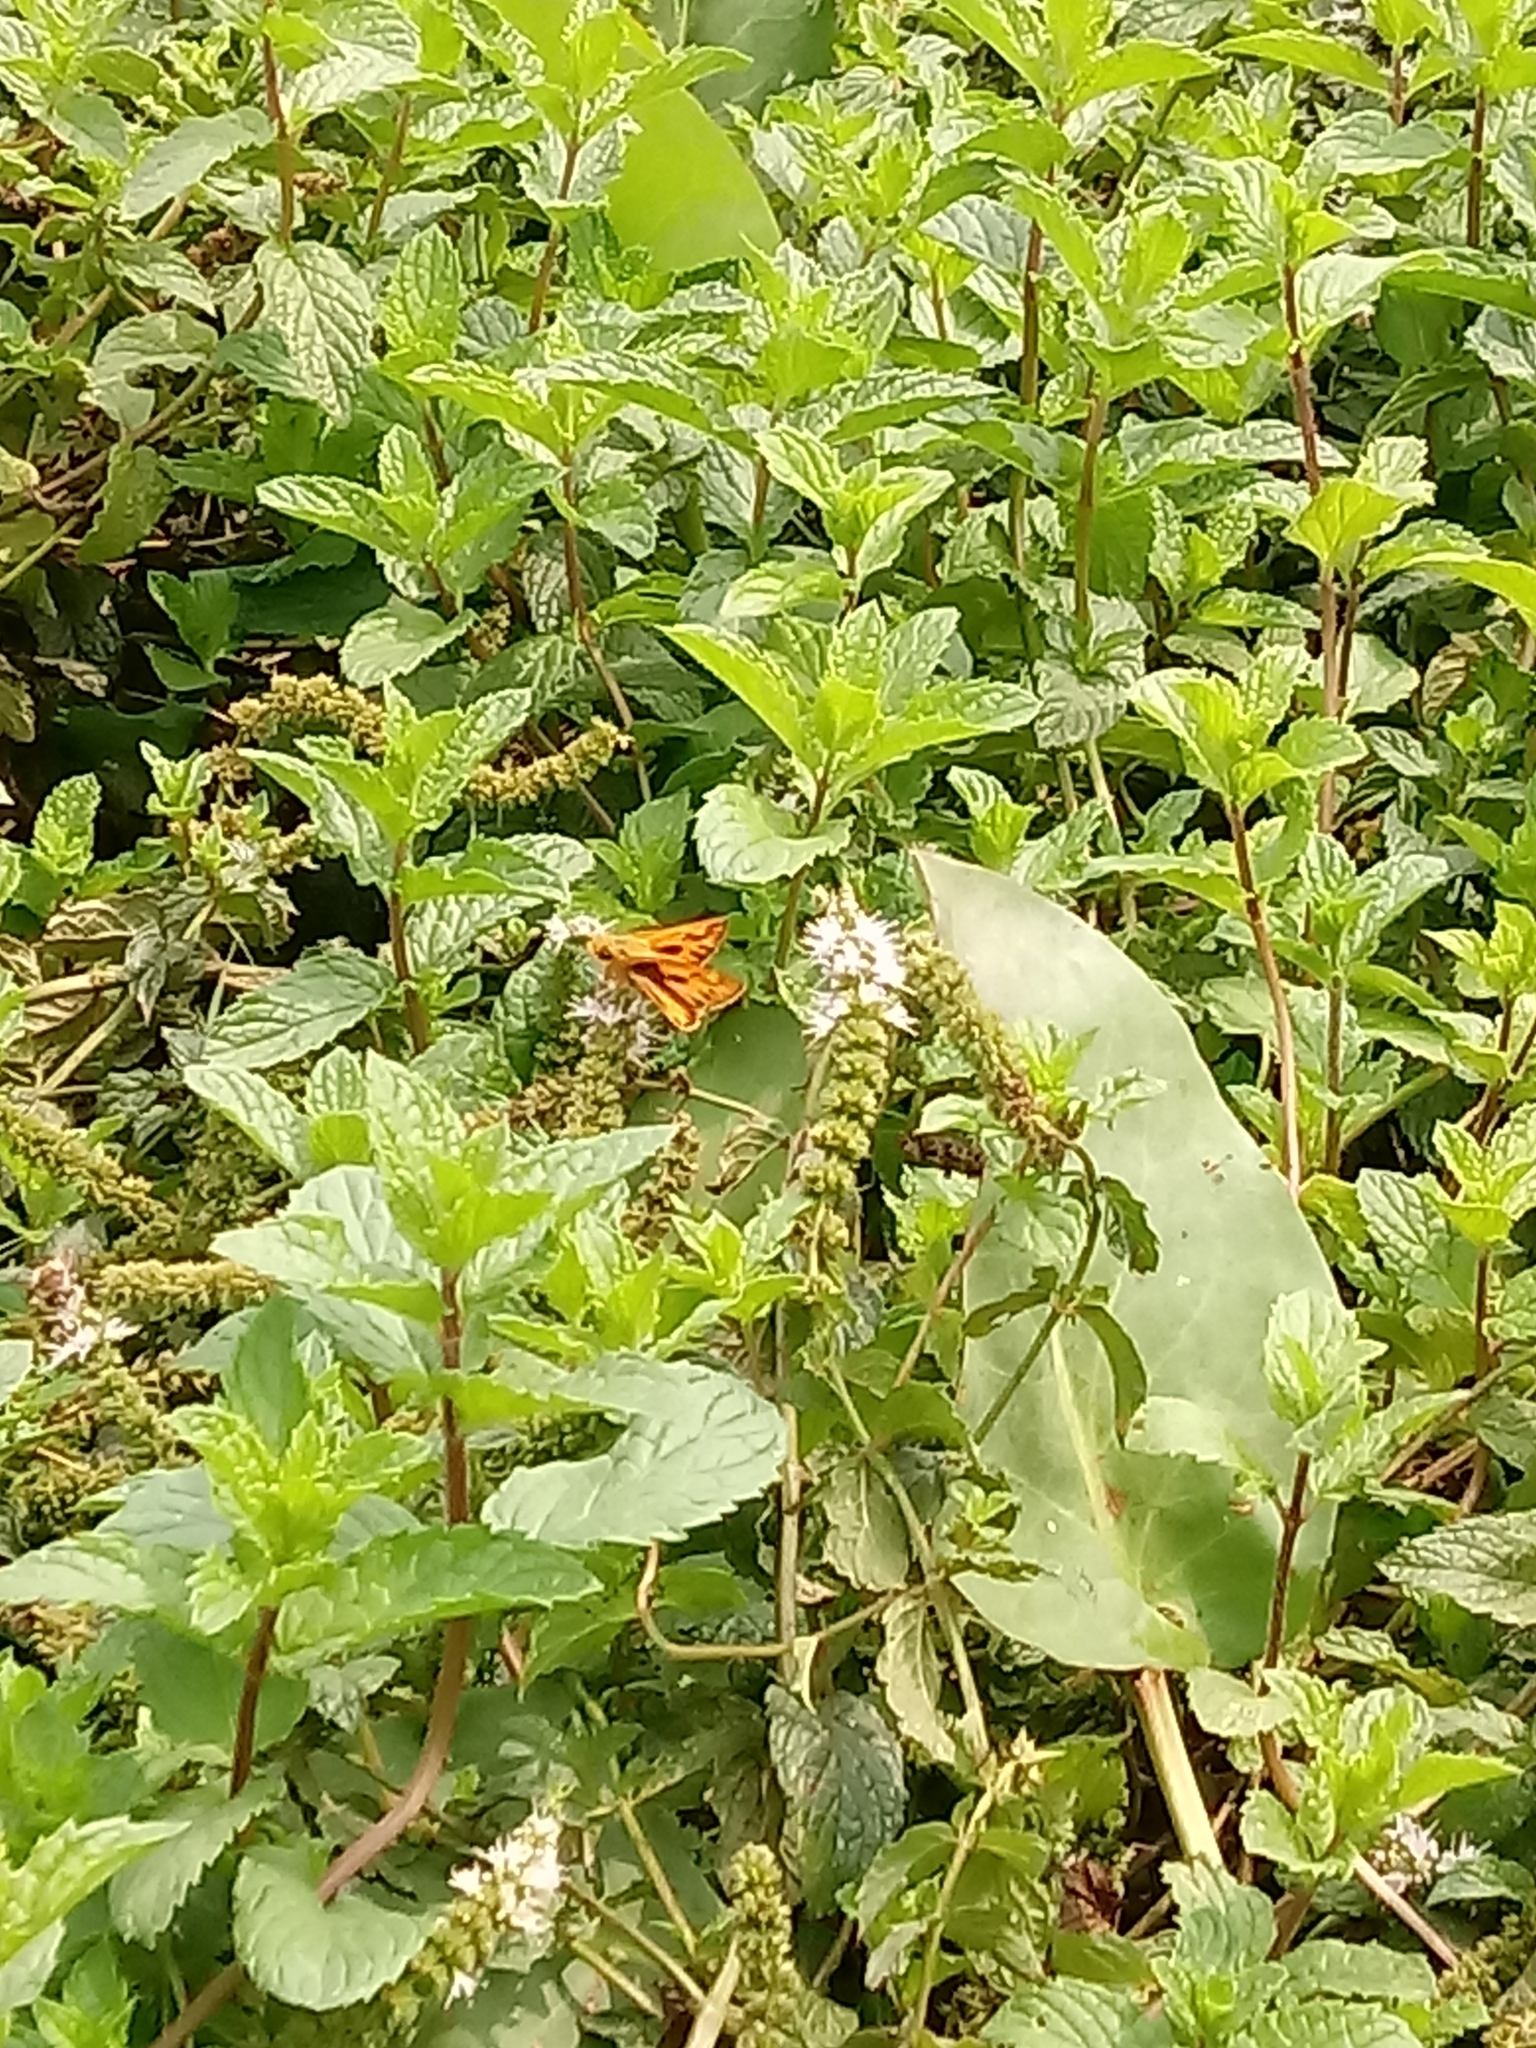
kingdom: Animalia
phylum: Arthropoda
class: Insecta
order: Lepidoptera
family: Hesperiidae
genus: Hylephila
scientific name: Hylephila phyleus
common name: Fiery skipper
